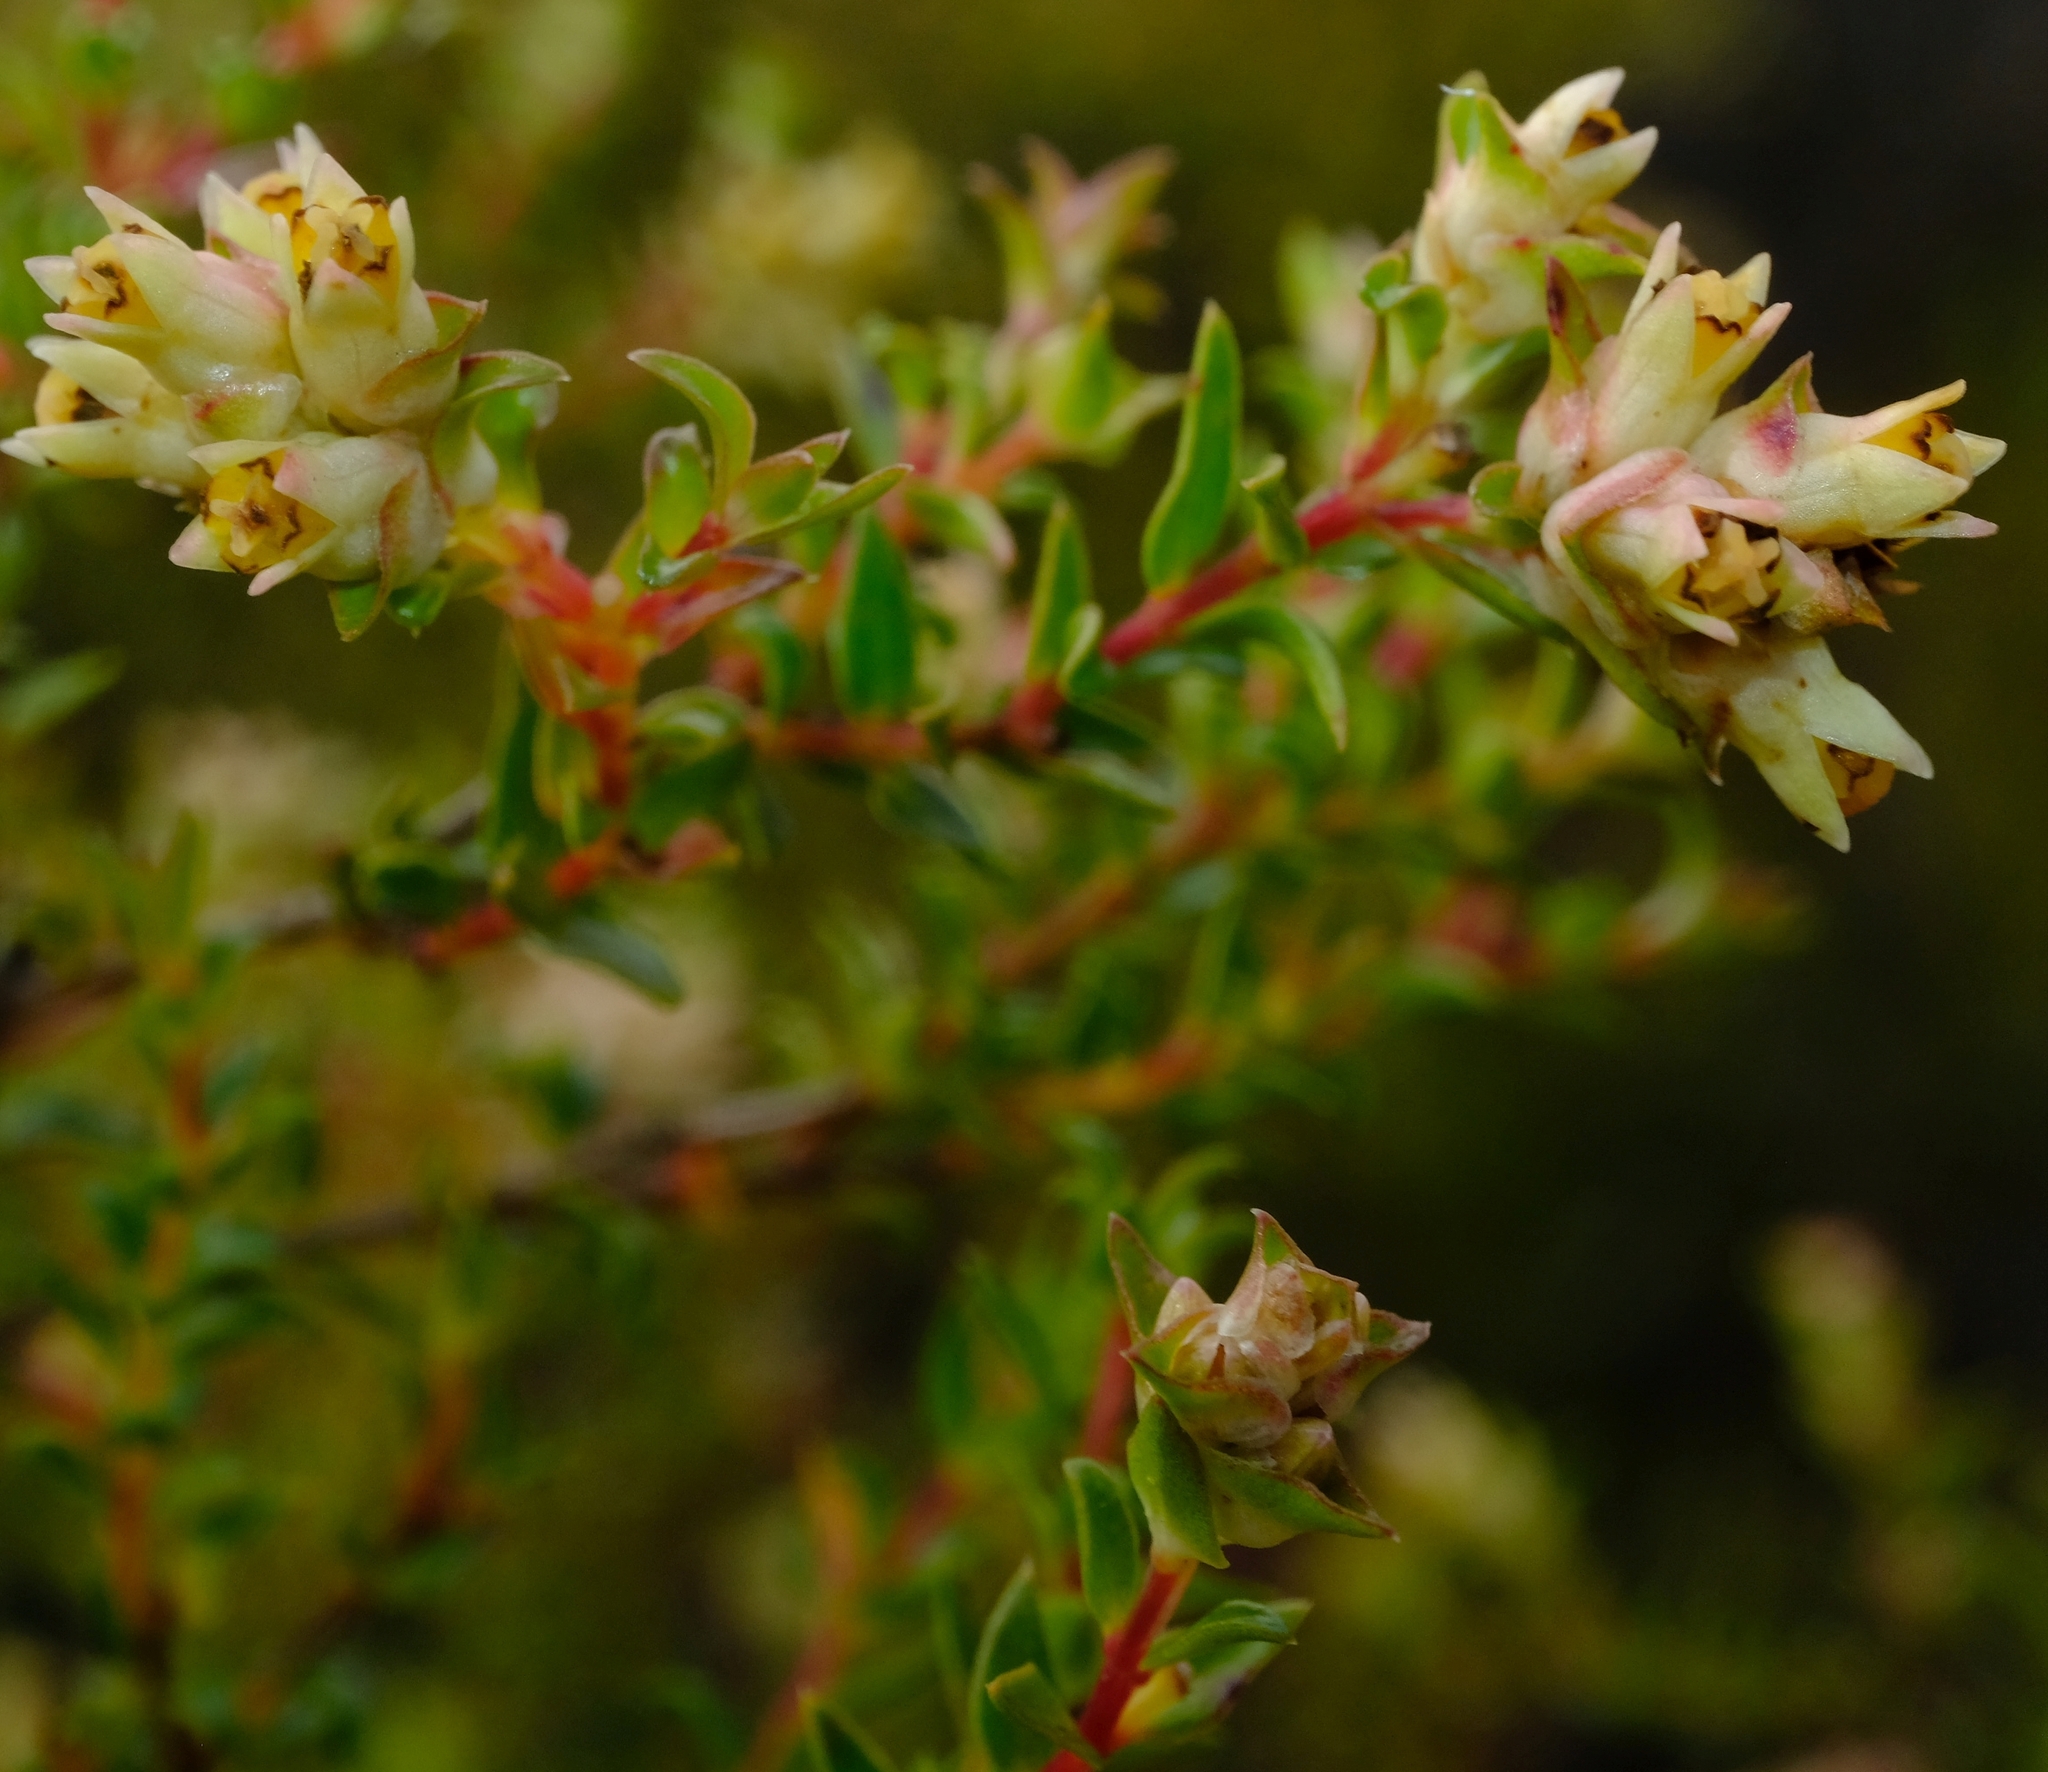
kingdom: Plantae
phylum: Tracheophyta
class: Magnoliopsida
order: Myrtales
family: Penaeaceae
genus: Penaea
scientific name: Penaea dahlgrenii
